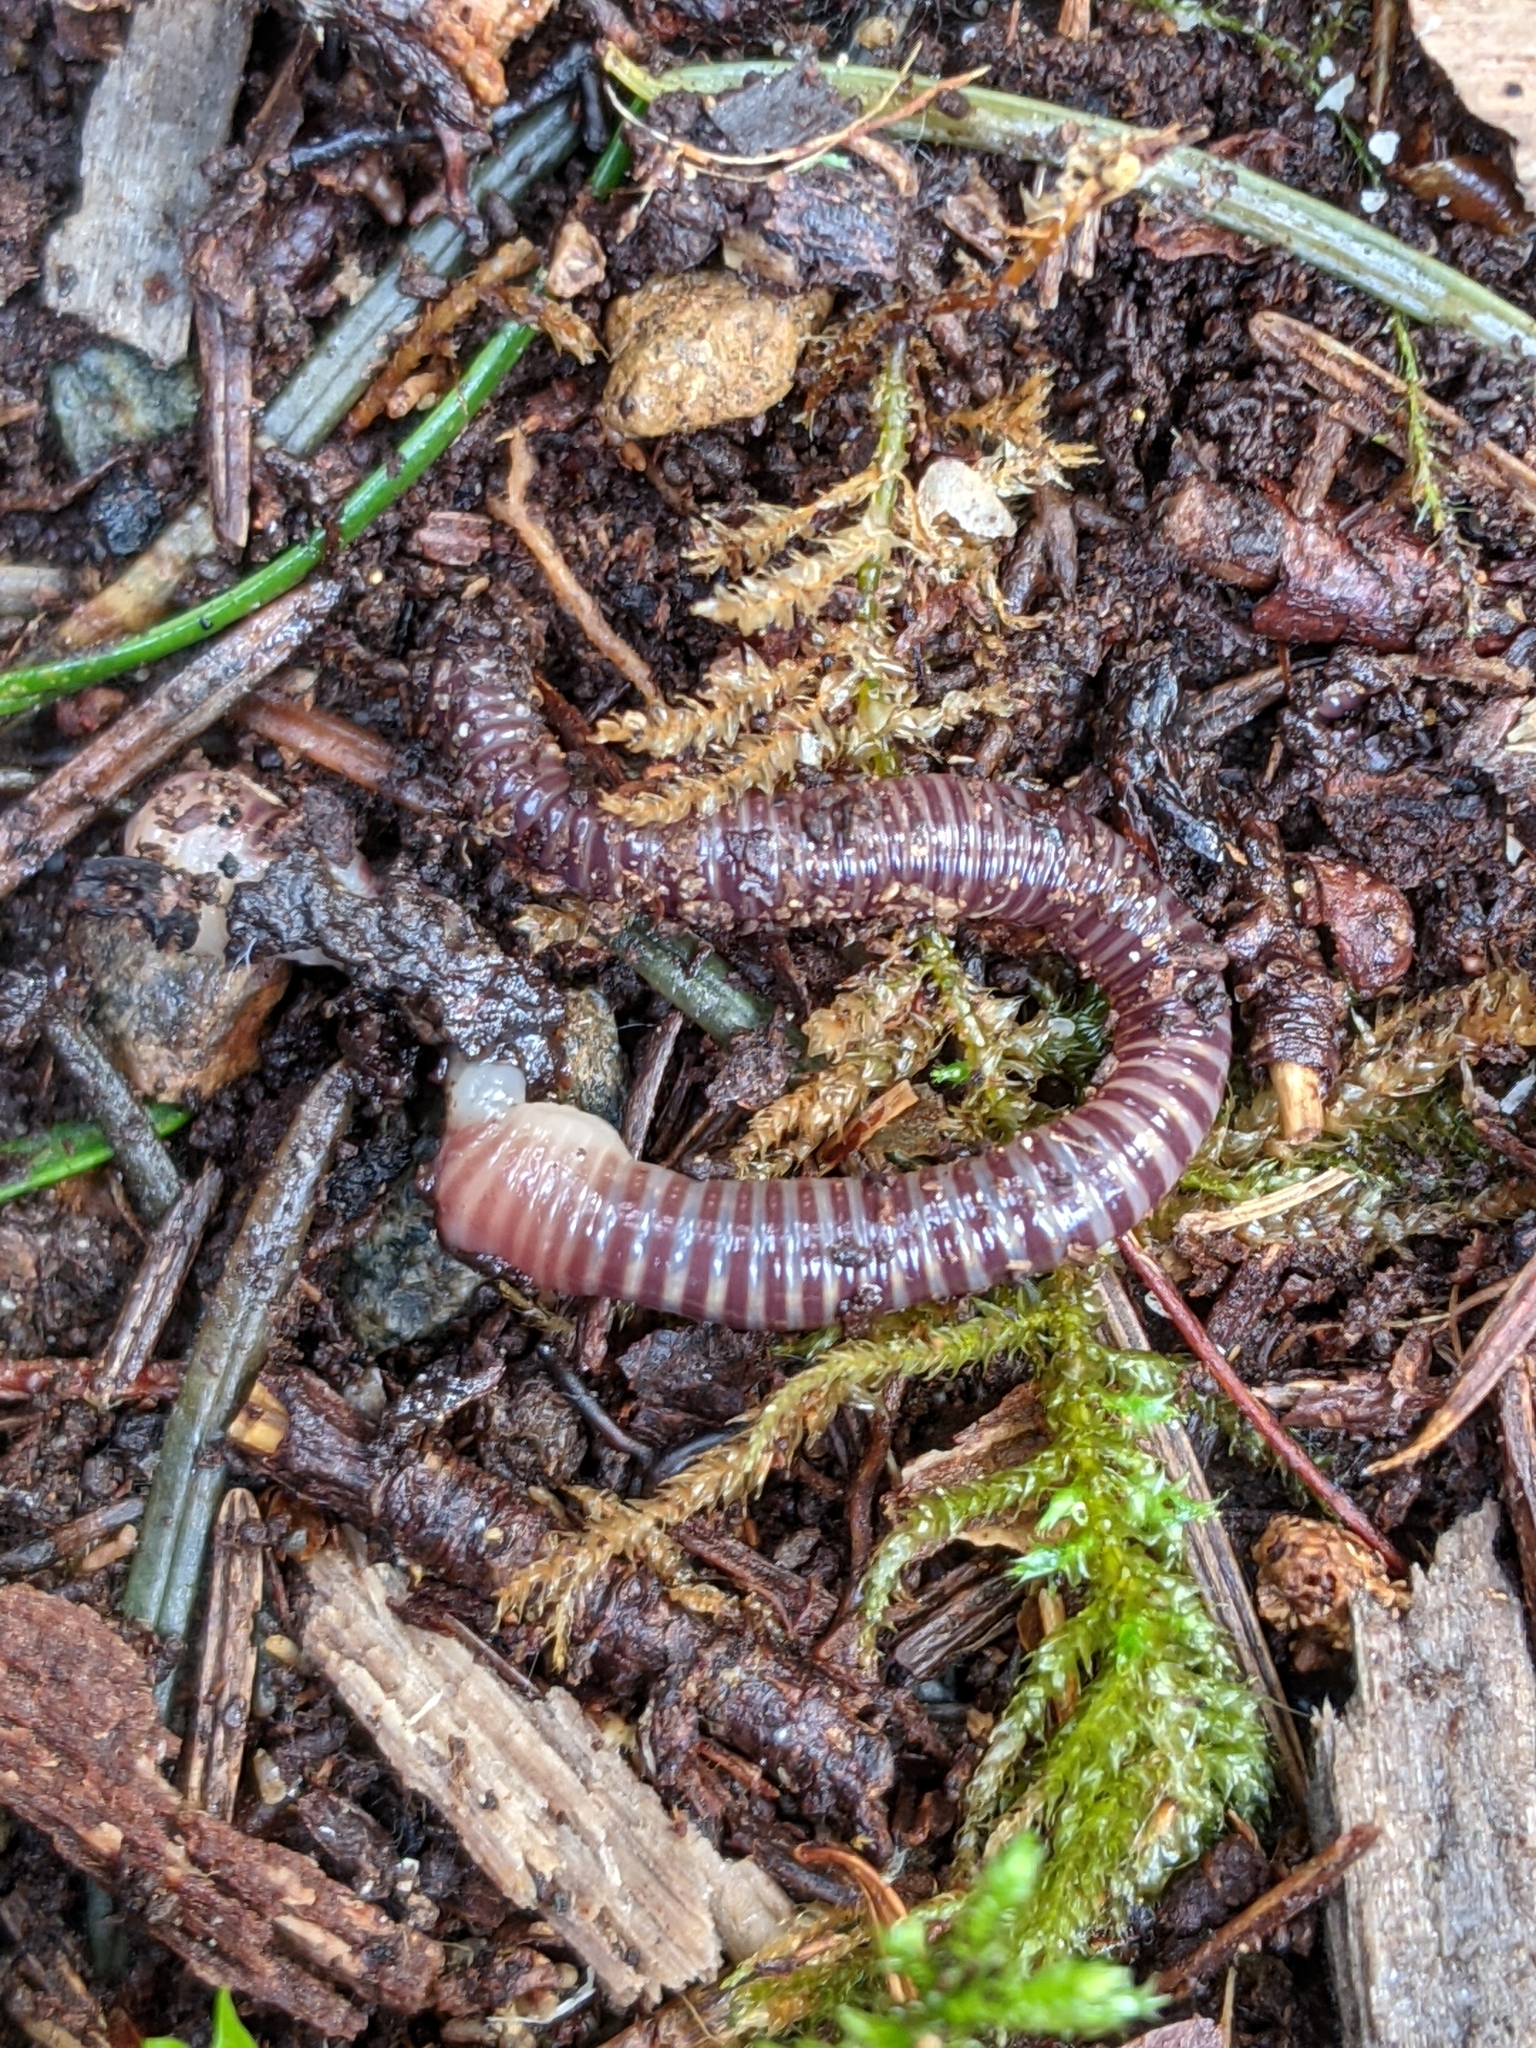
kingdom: Animalia
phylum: Annelida
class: Clitellata
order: Crassiclitellata
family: Lumbricidae
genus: Eisenia
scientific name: Eisenia fetida
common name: Red wiggler
